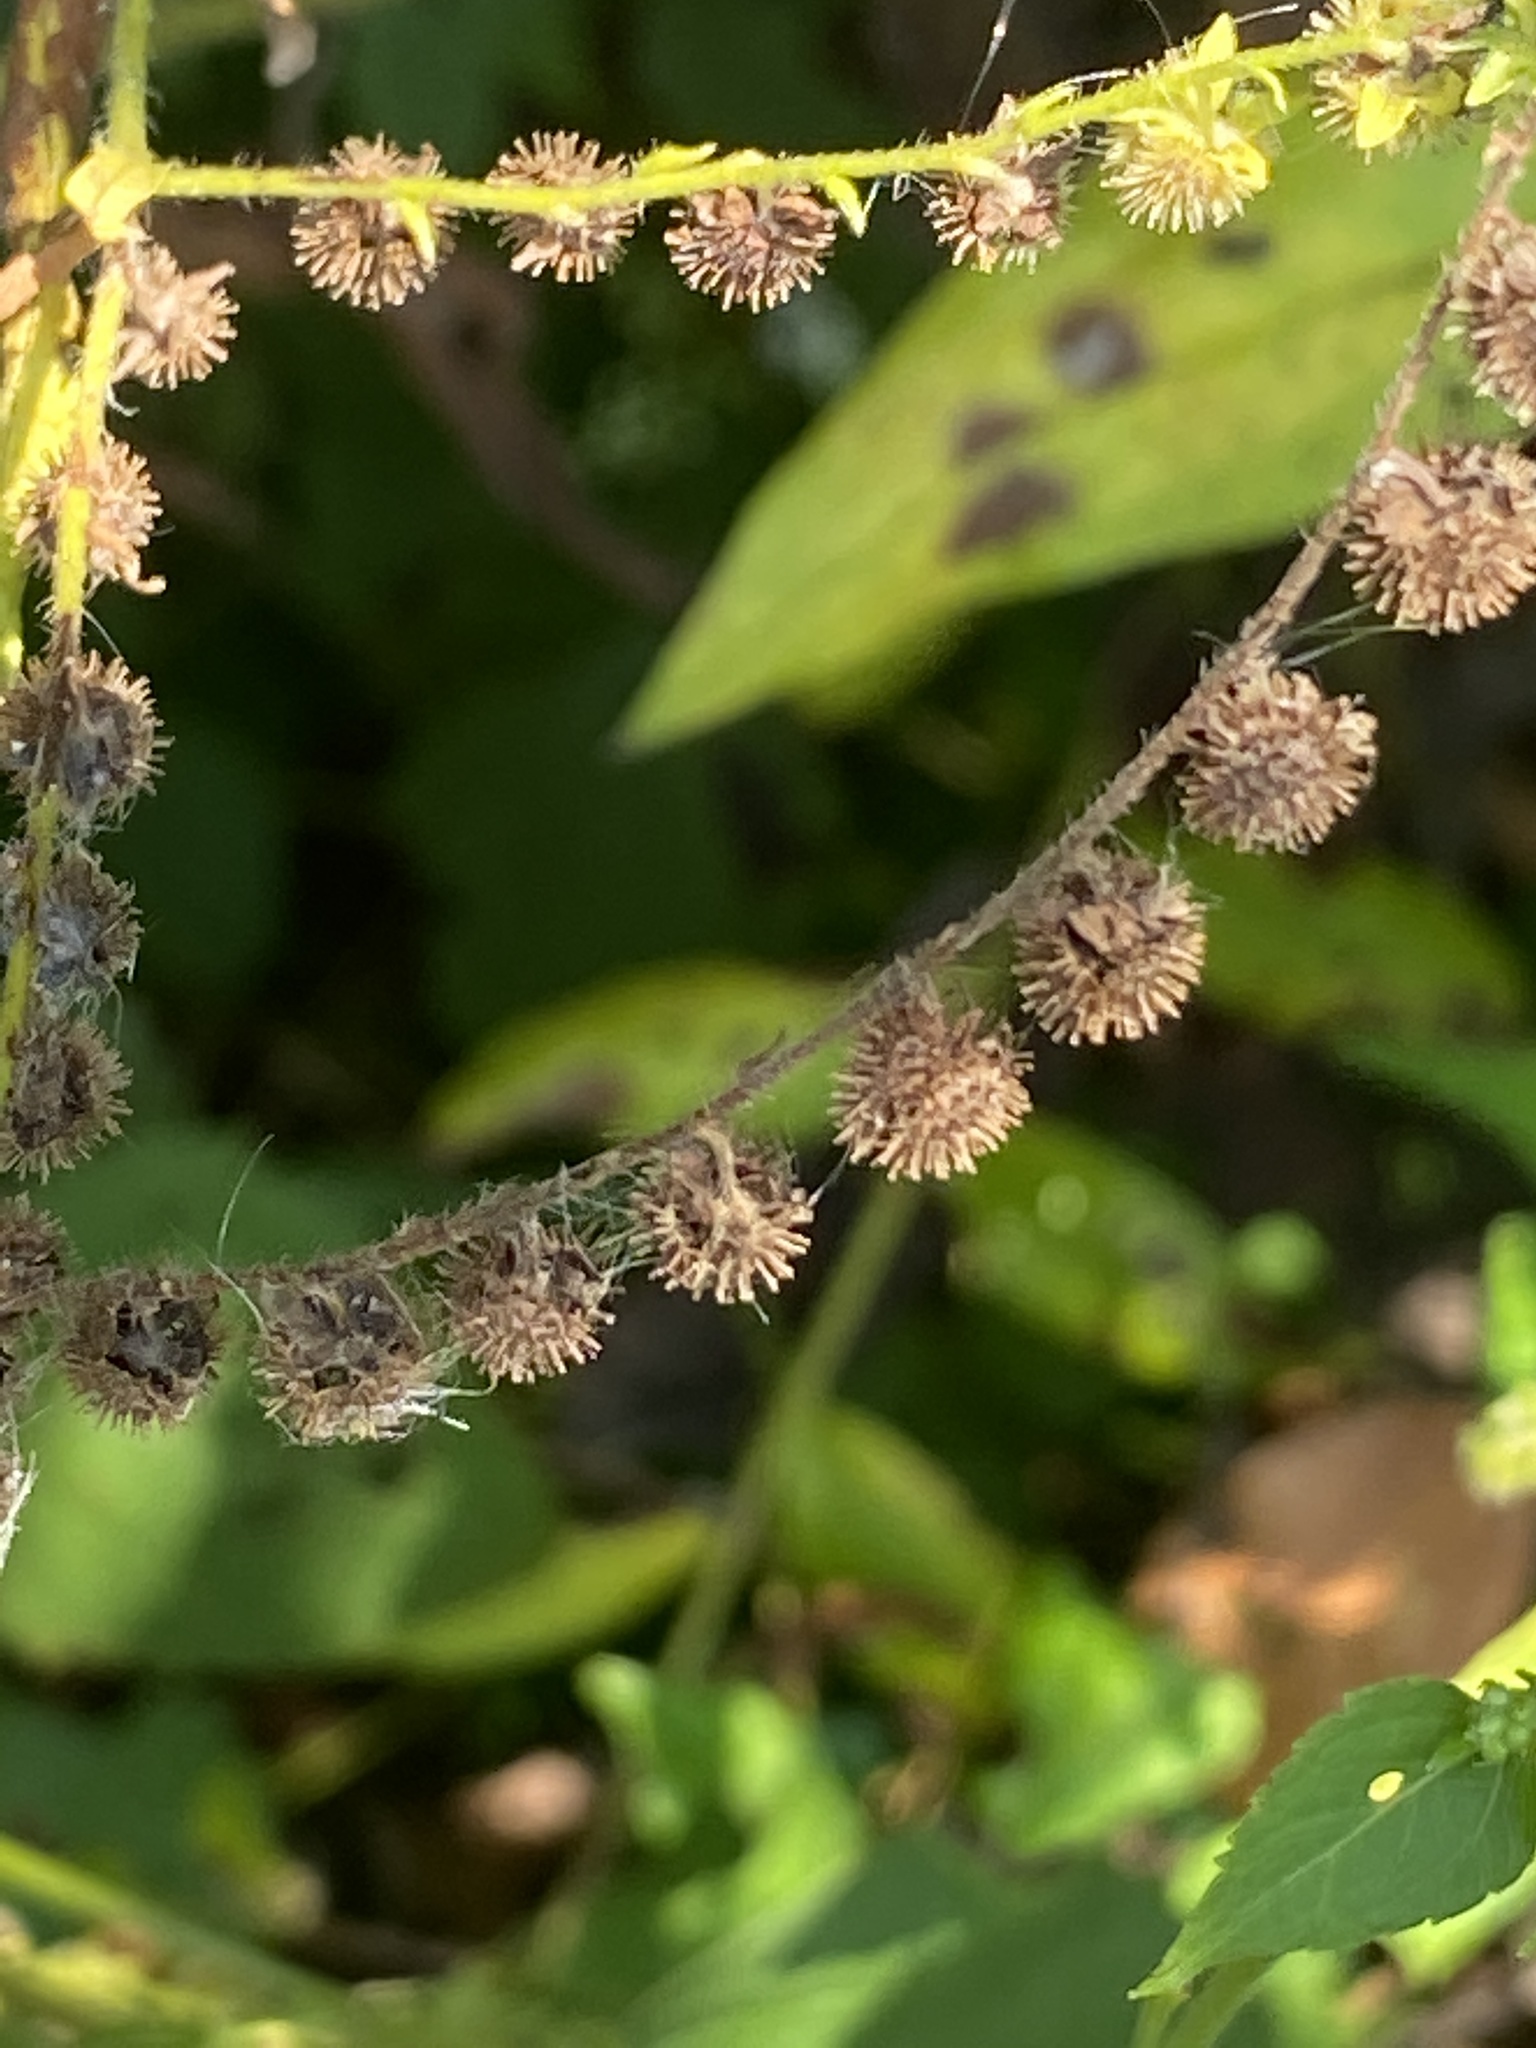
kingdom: Plantae
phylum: Tracheophyta
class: Magnoliopsida
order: Boraginales
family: Boraginaceae
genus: Hackelia
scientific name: Hackelia virginiana
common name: Beggar's-lice
